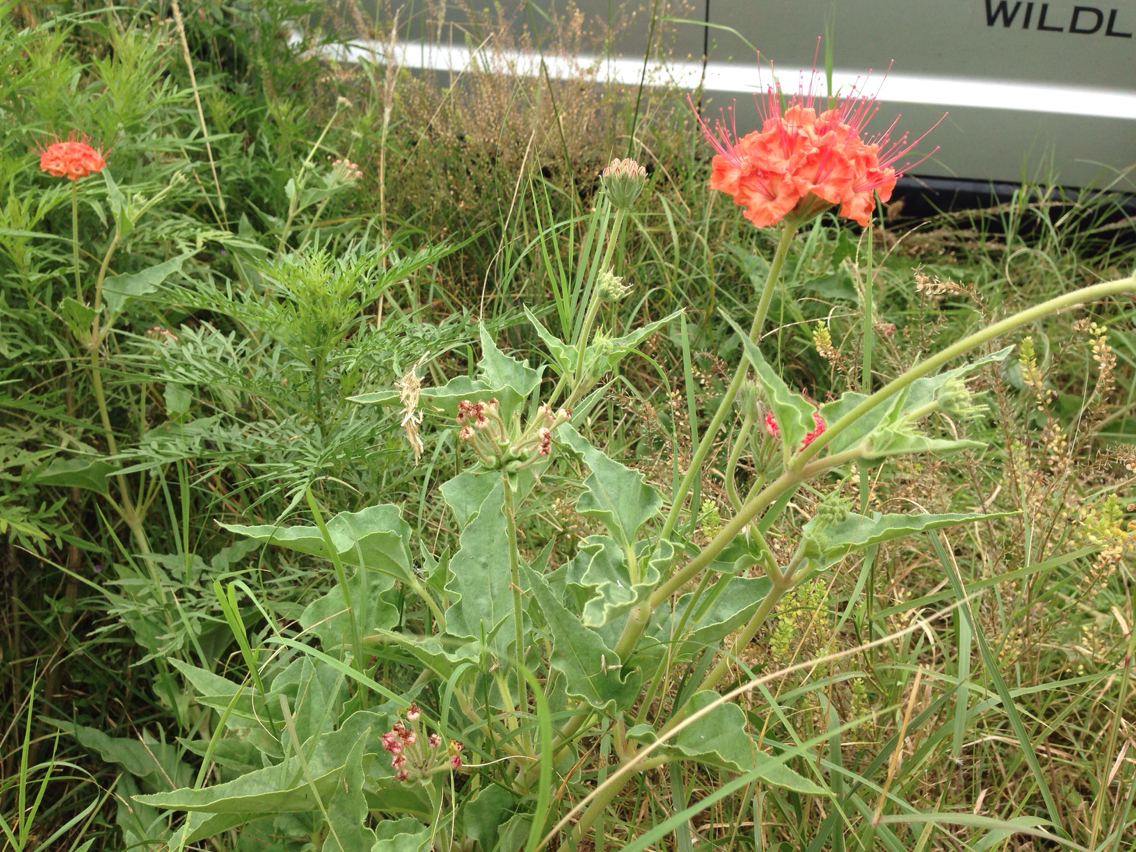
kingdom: Plantae
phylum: Tracheophyta
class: Magnoliopsida
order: Caryophyllales
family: Nyctaginaceae
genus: Nyctaginia
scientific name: Nyctaginia capitata
